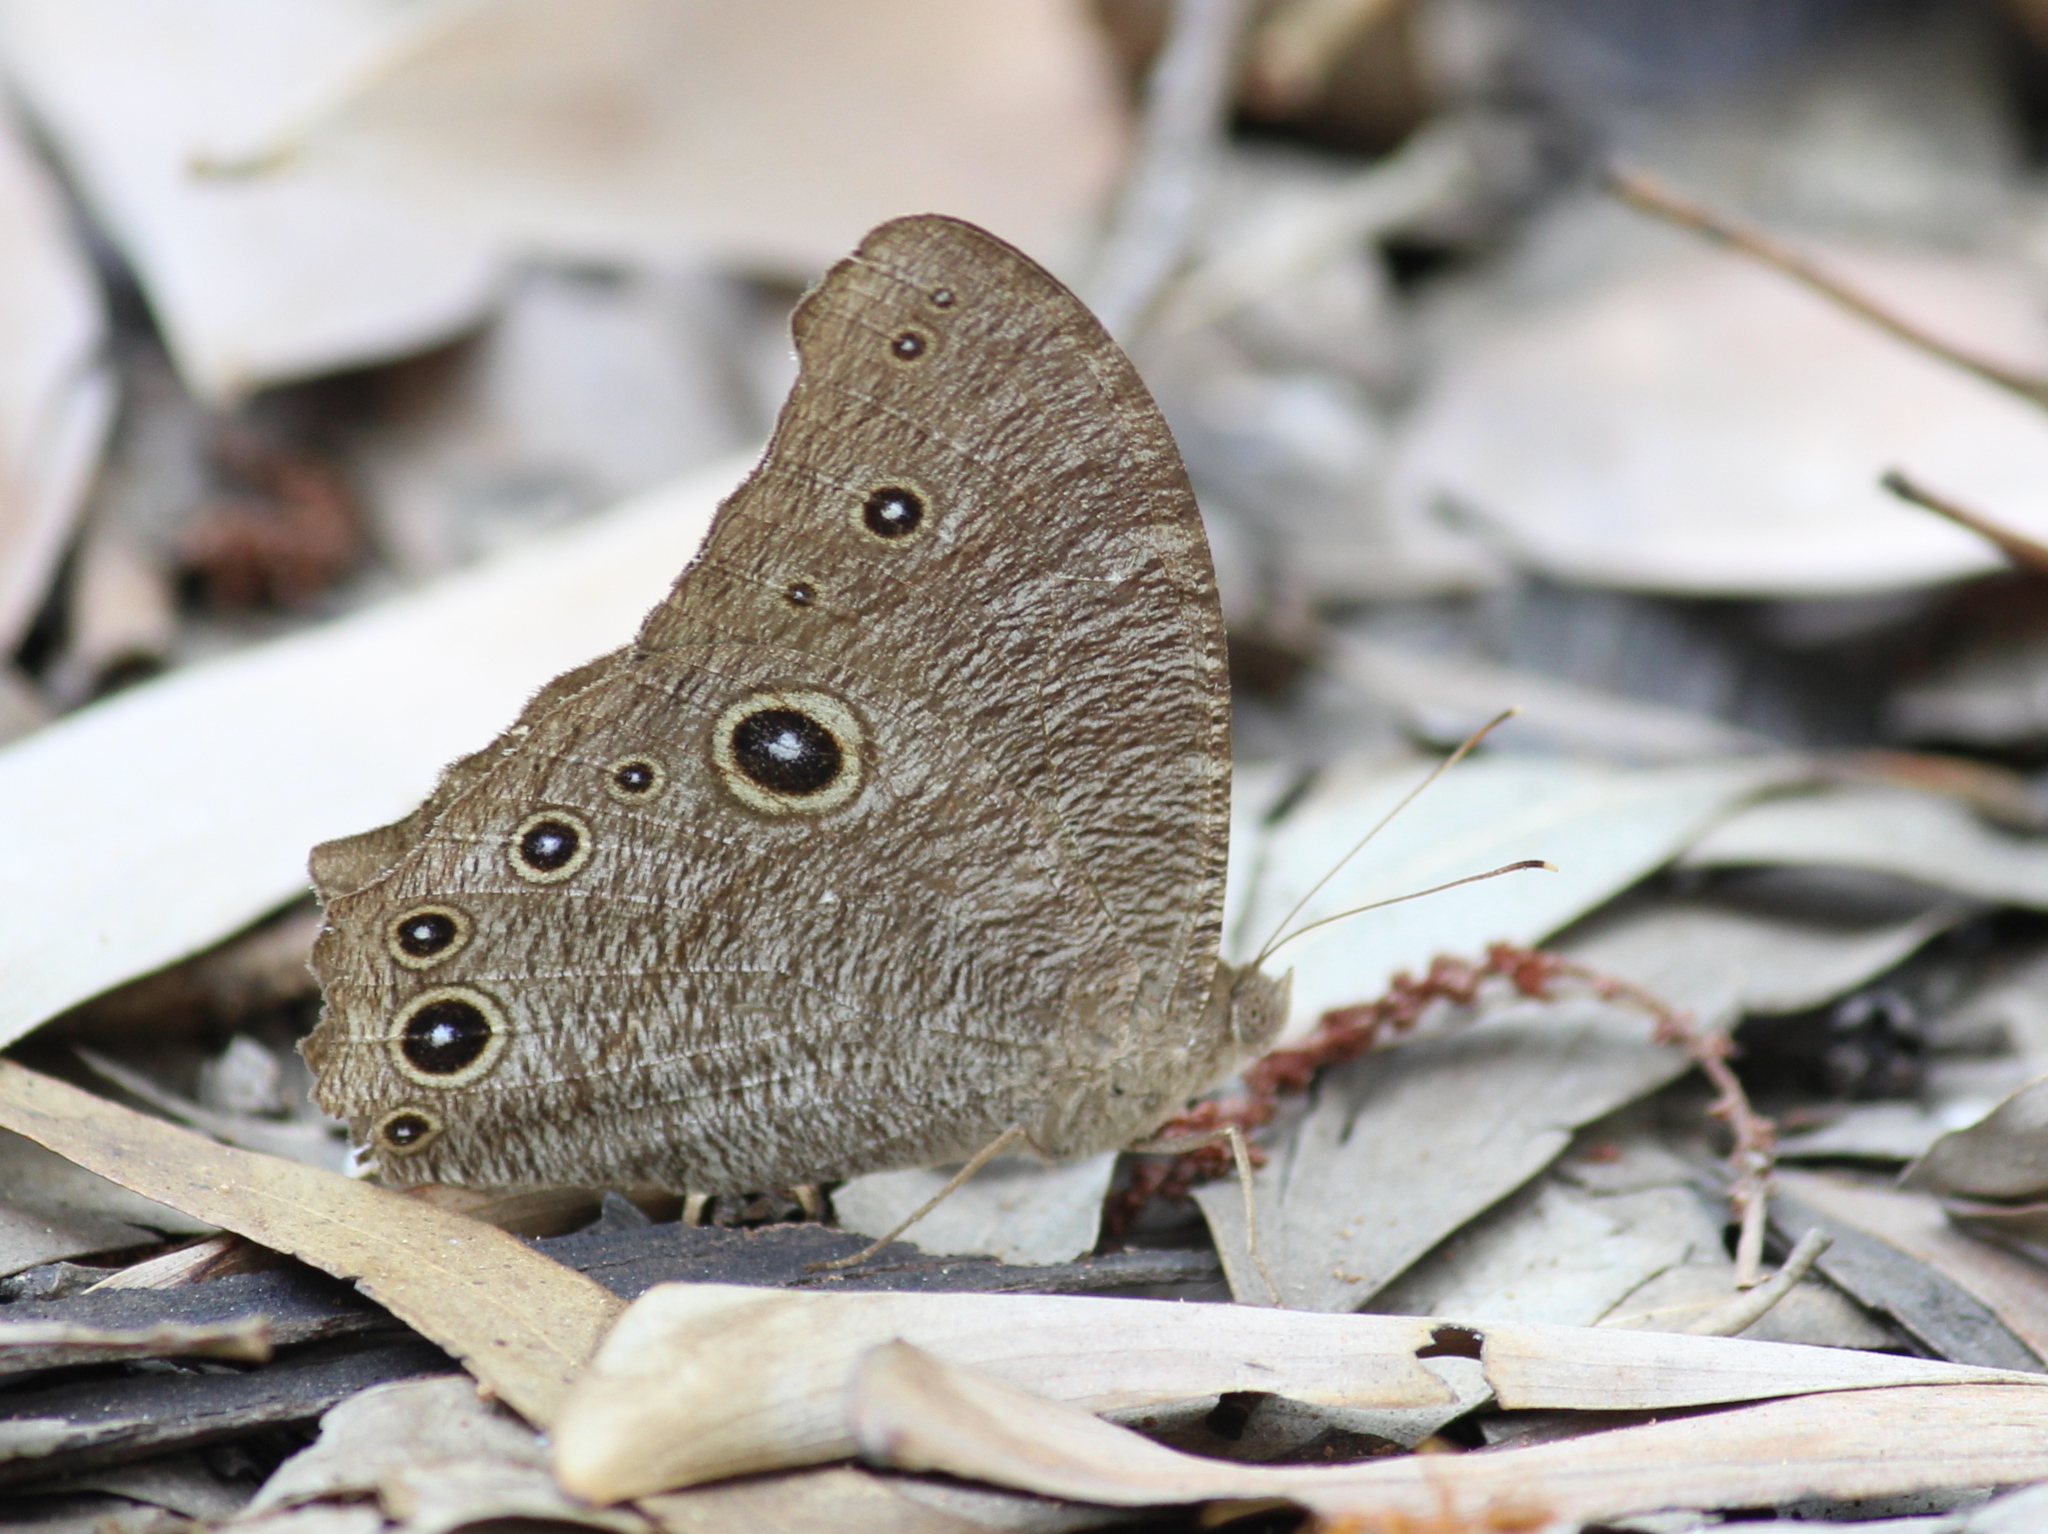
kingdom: Animalia
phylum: Arthropoda
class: Insecta
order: Lepidoptera
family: Nymphalidae
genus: Melanitis
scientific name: Melanitis leda
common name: Twilight brown
